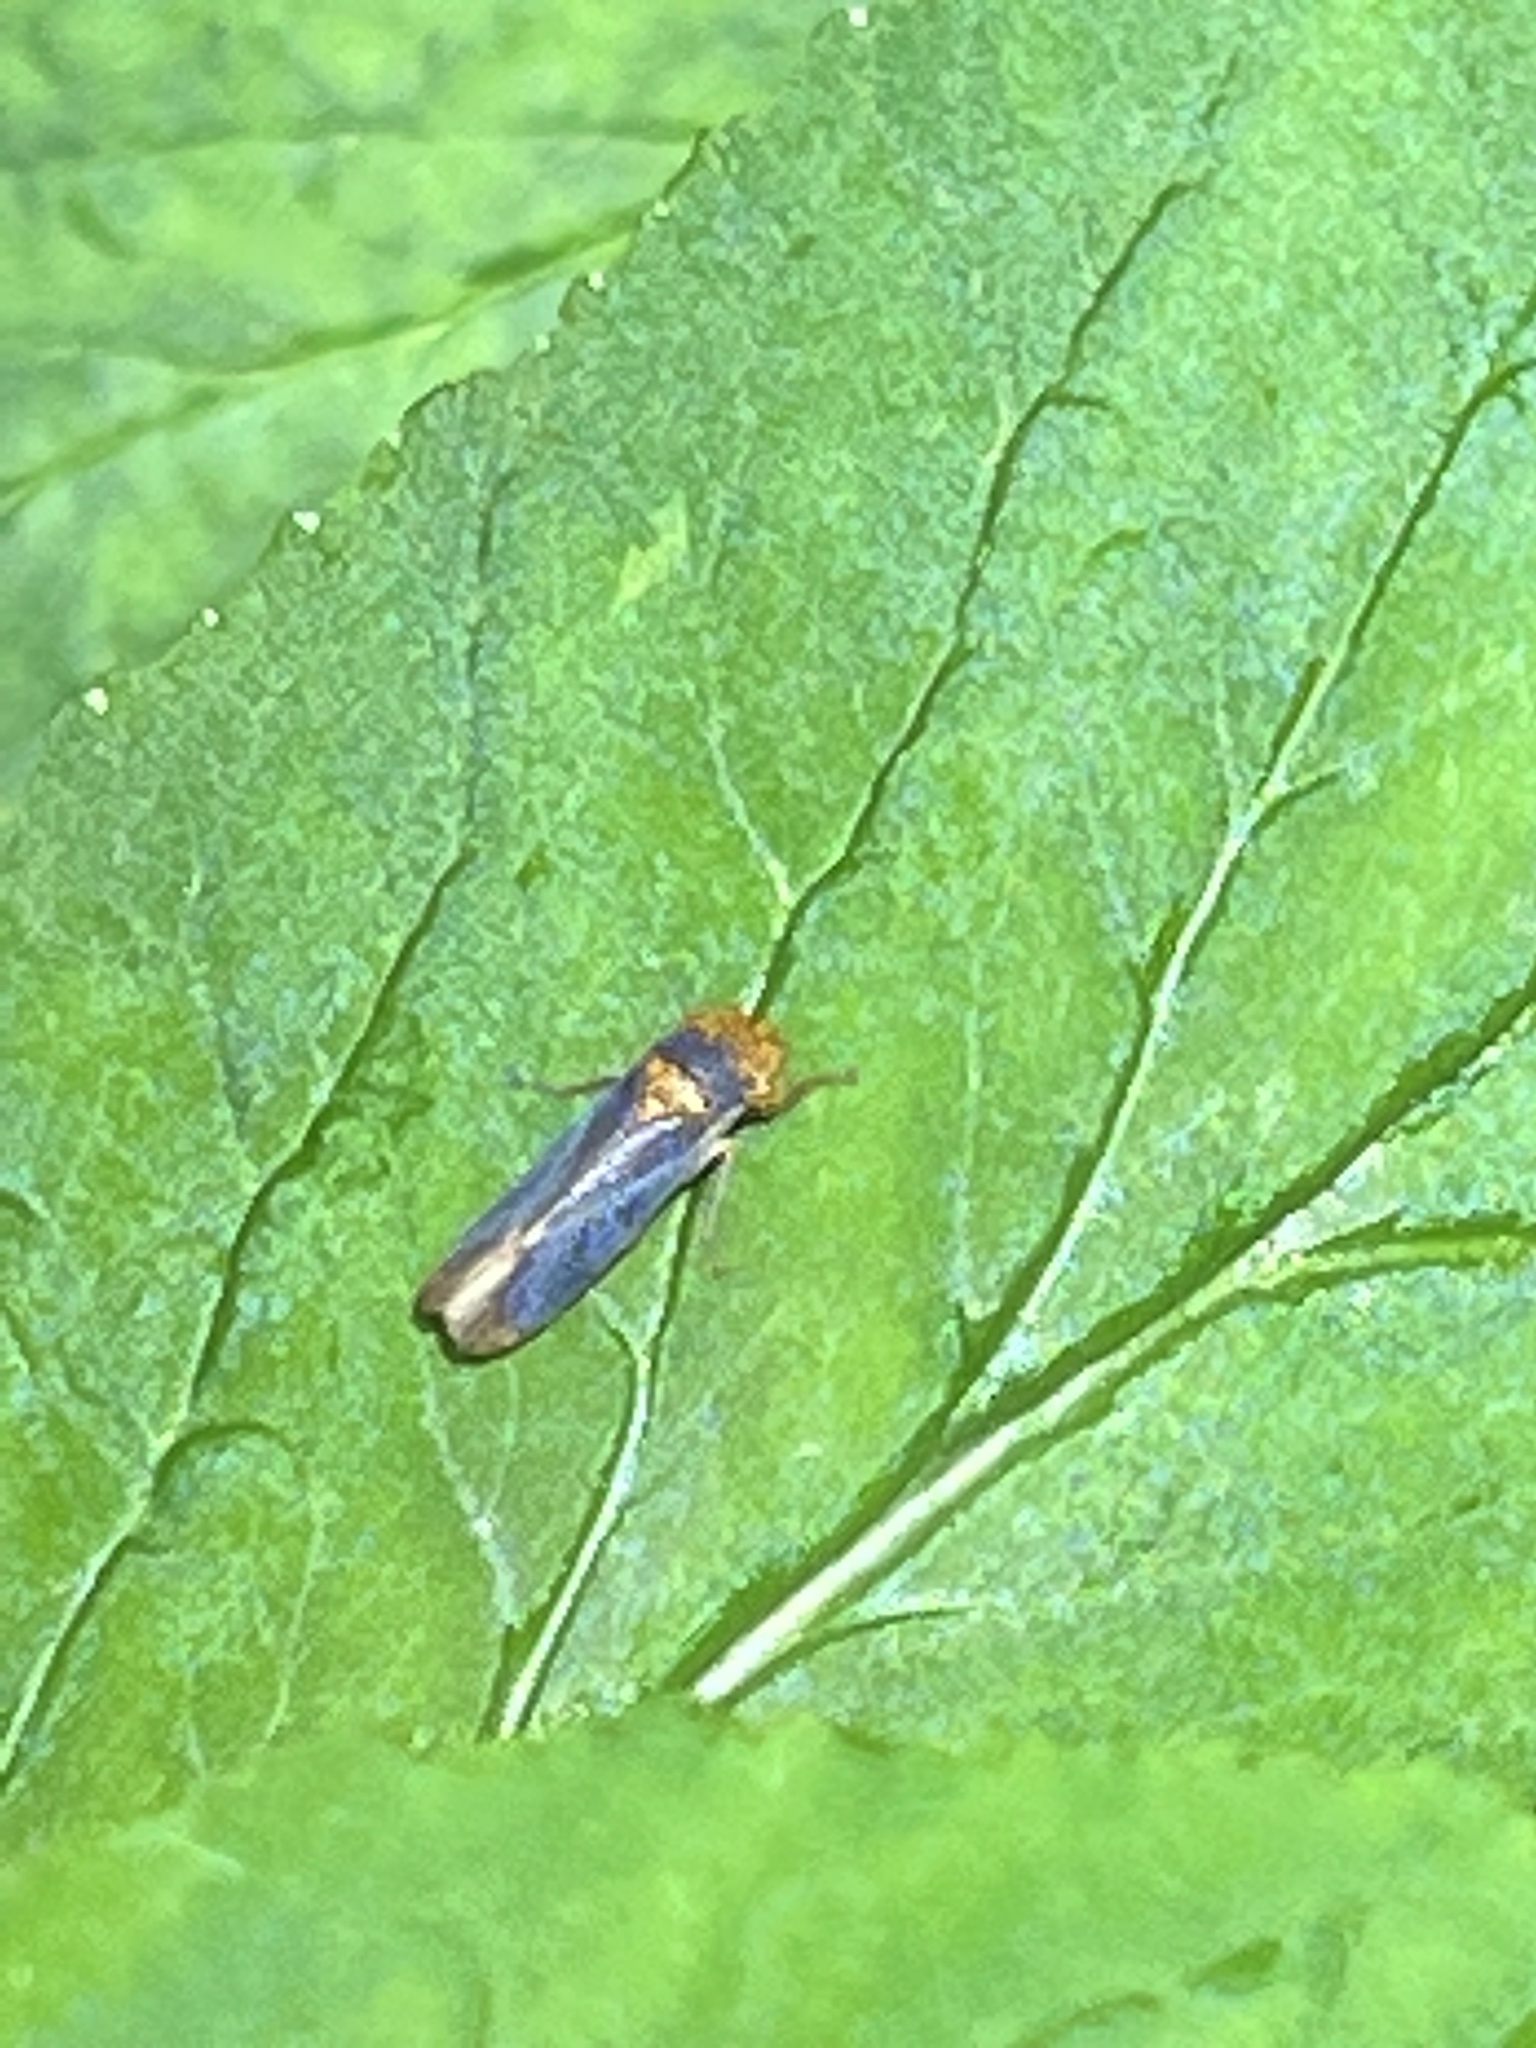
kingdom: Animalia
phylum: Arthropoda
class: Insecta
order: Hemiptera
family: Cicadellidae
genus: Oncometopia
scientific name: Oncometopia orbona
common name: Broad-headed sharpshooter
